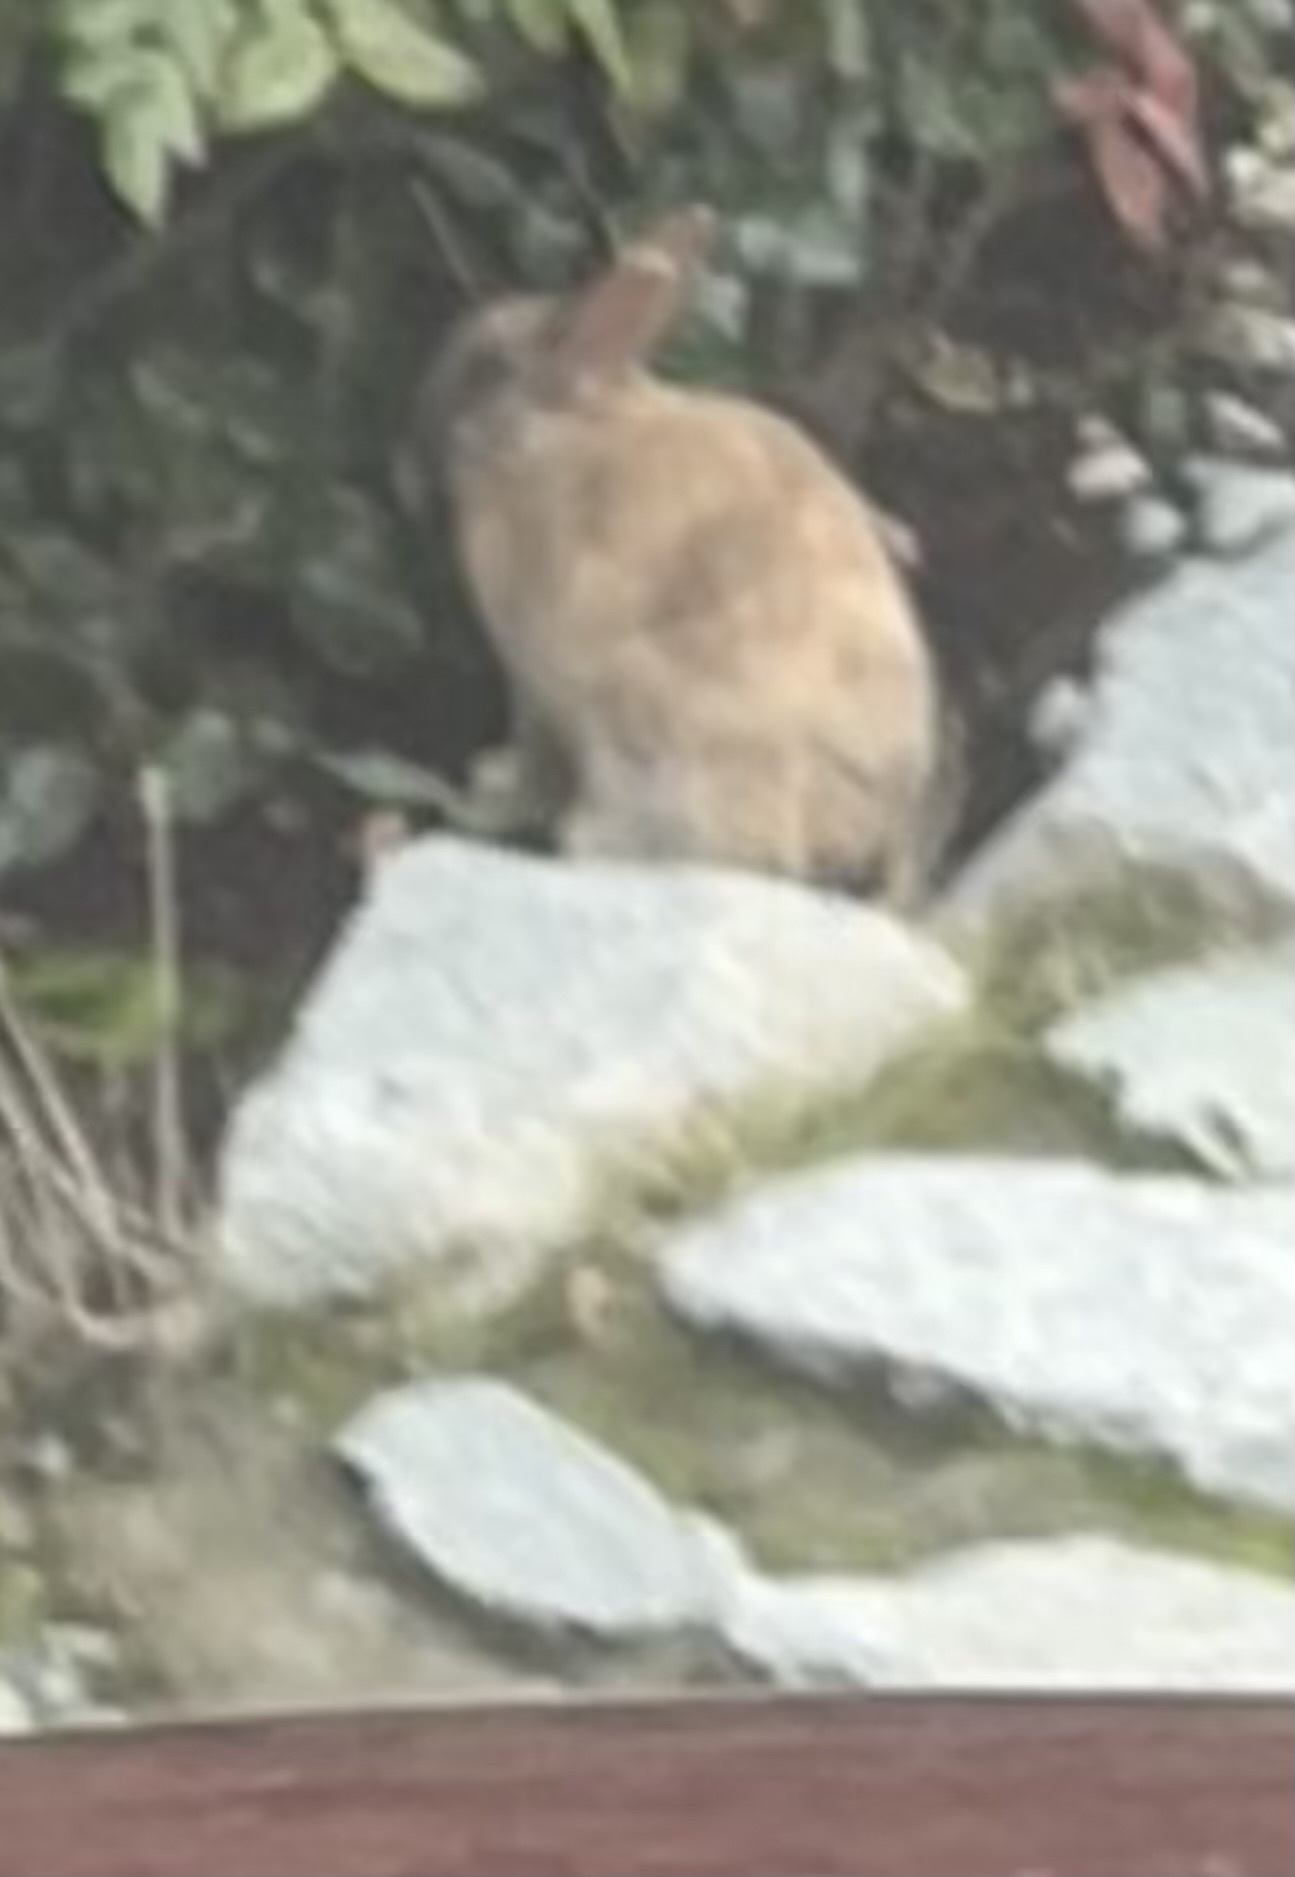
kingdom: Animalia
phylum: Chordata
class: Mammalia
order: Lagomorpha
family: Leporidae
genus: Oryctolagus
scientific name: Oryctolagus cuniculus
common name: European rabbit
